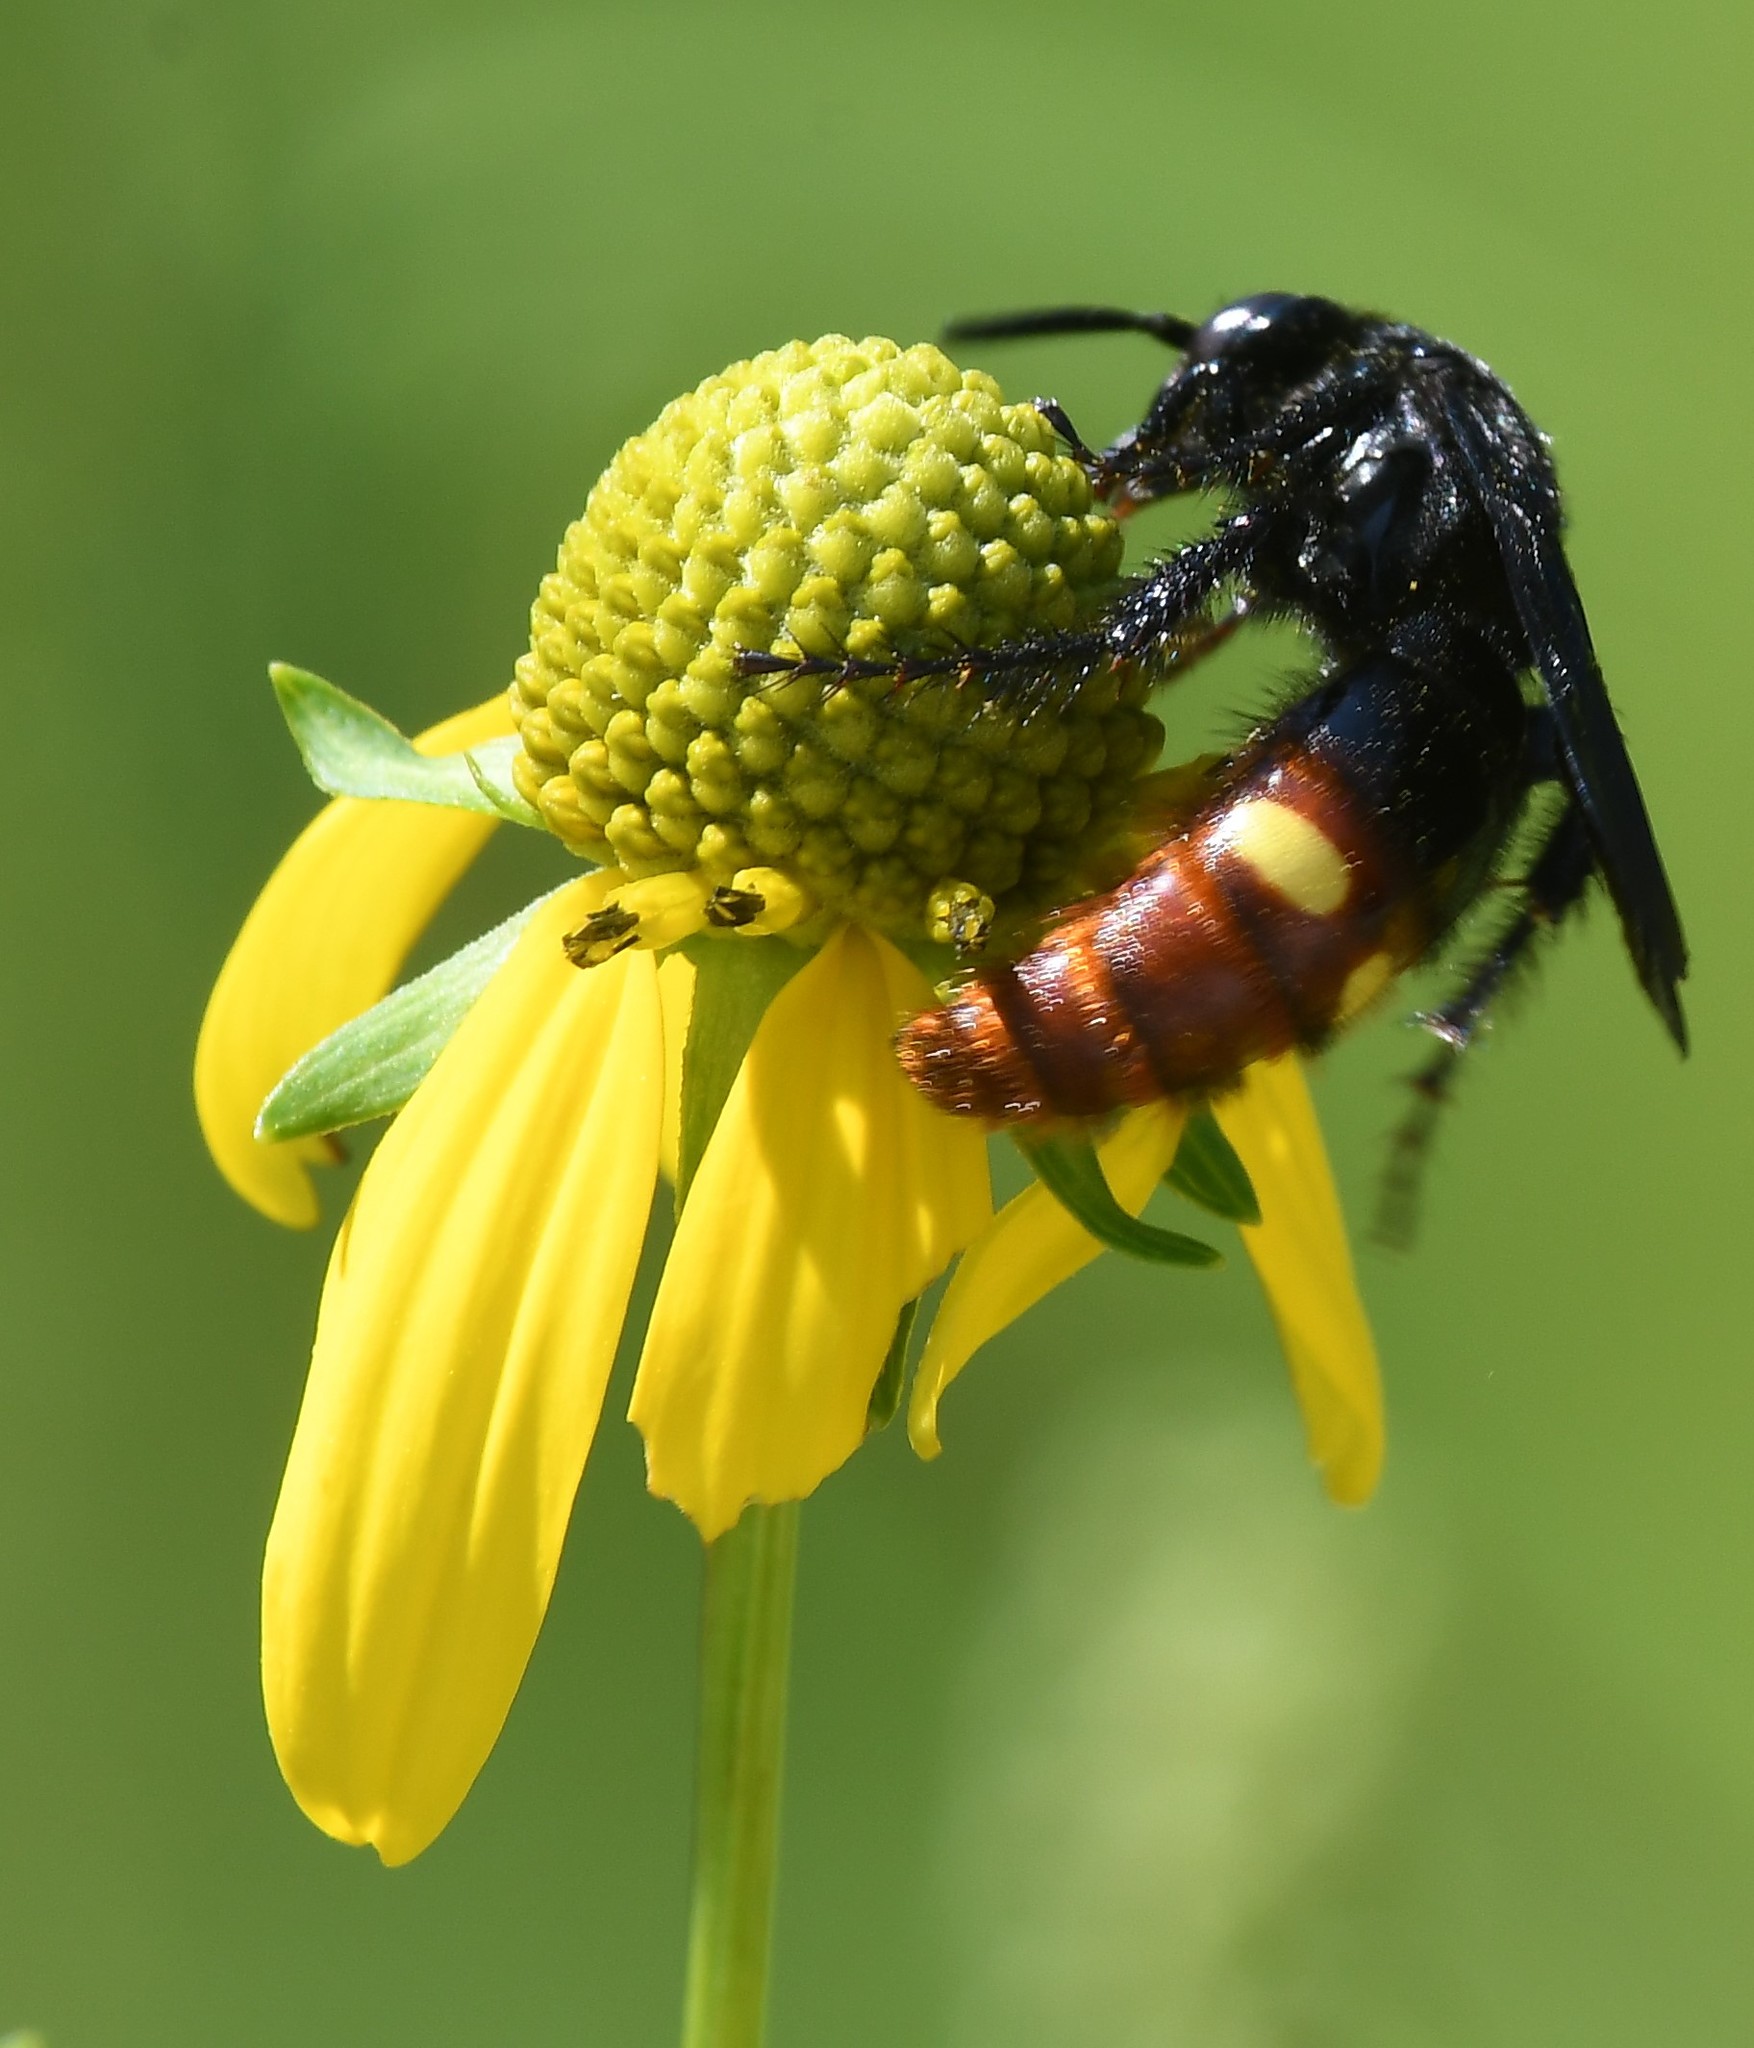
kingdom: Animalia
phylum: Arthropoda
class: Insecta
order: Hymenoptera
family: Scoliidae
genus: Scolia
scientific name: Scolia dubia
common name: Blue-winged scoliid wasp
